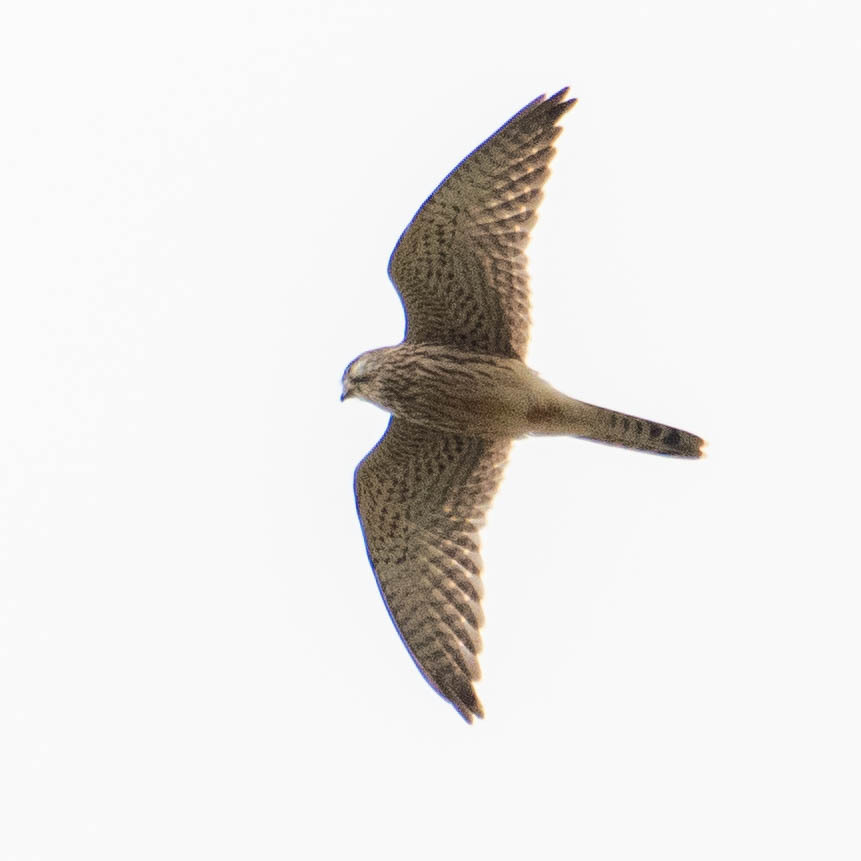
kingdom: Animalia
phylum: Chordata
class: Aves
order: Falconiformes
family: Falconidae
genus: Falco
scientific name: Falco tinnunculus
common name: Common kestrel
